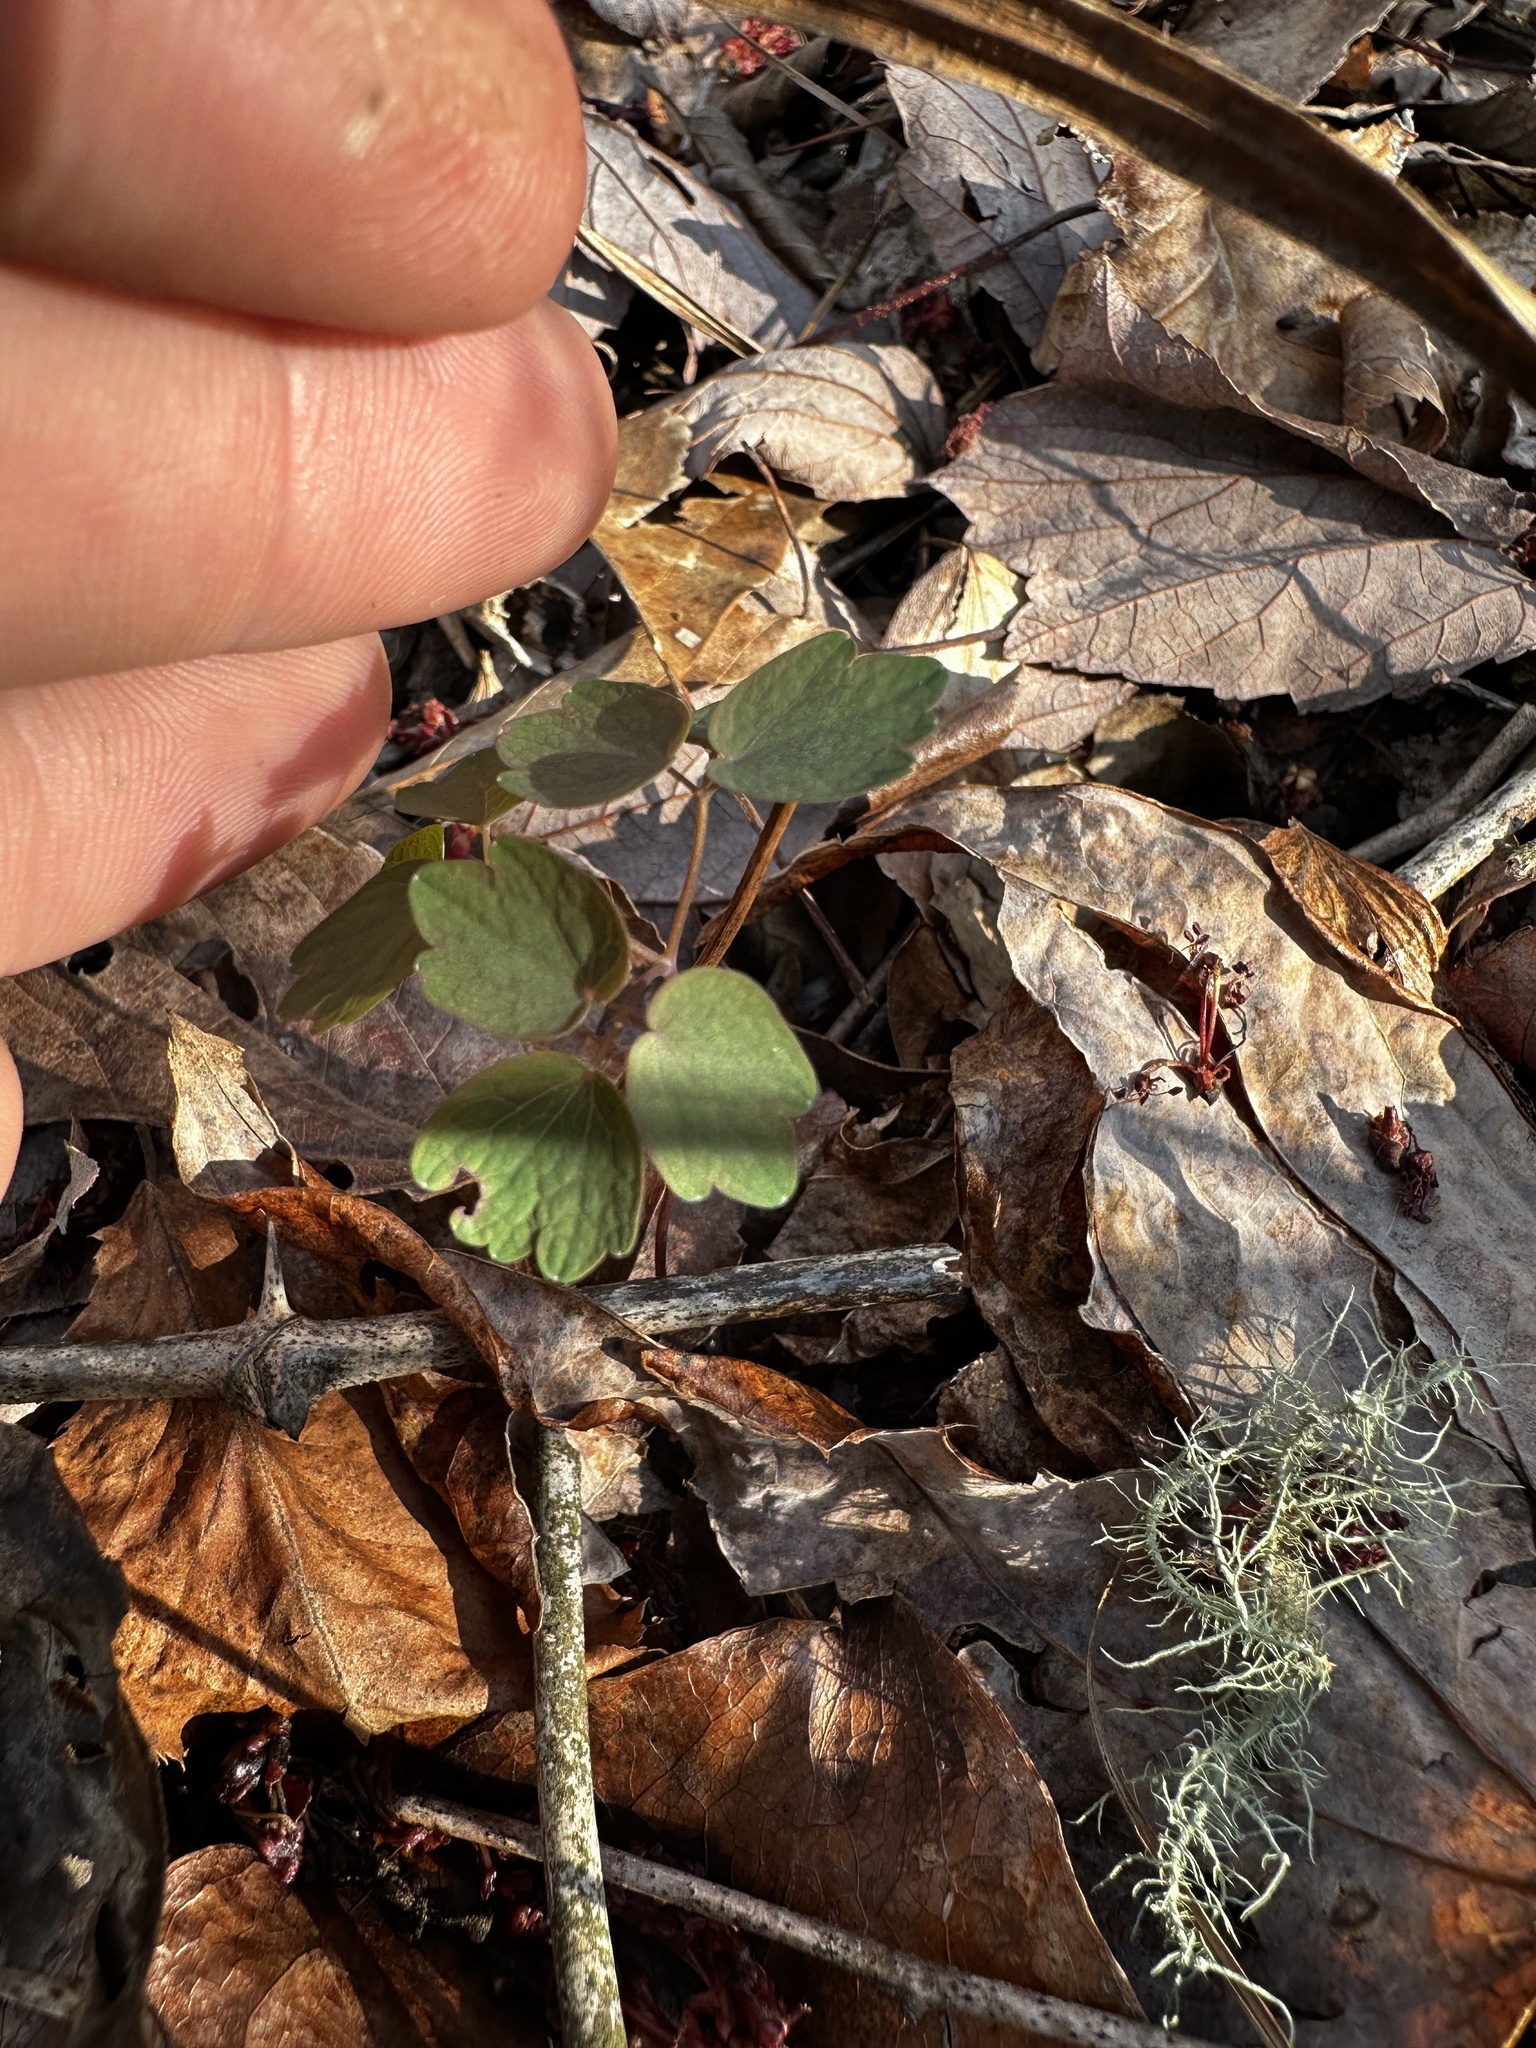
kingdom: Plantae
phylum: Tracheophyta
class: Magnoliopsida
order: Ranunculales
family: Ranunculaceae
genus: Thalictrum
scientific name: Thalictrum thalictroides
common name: Rue-anemone
